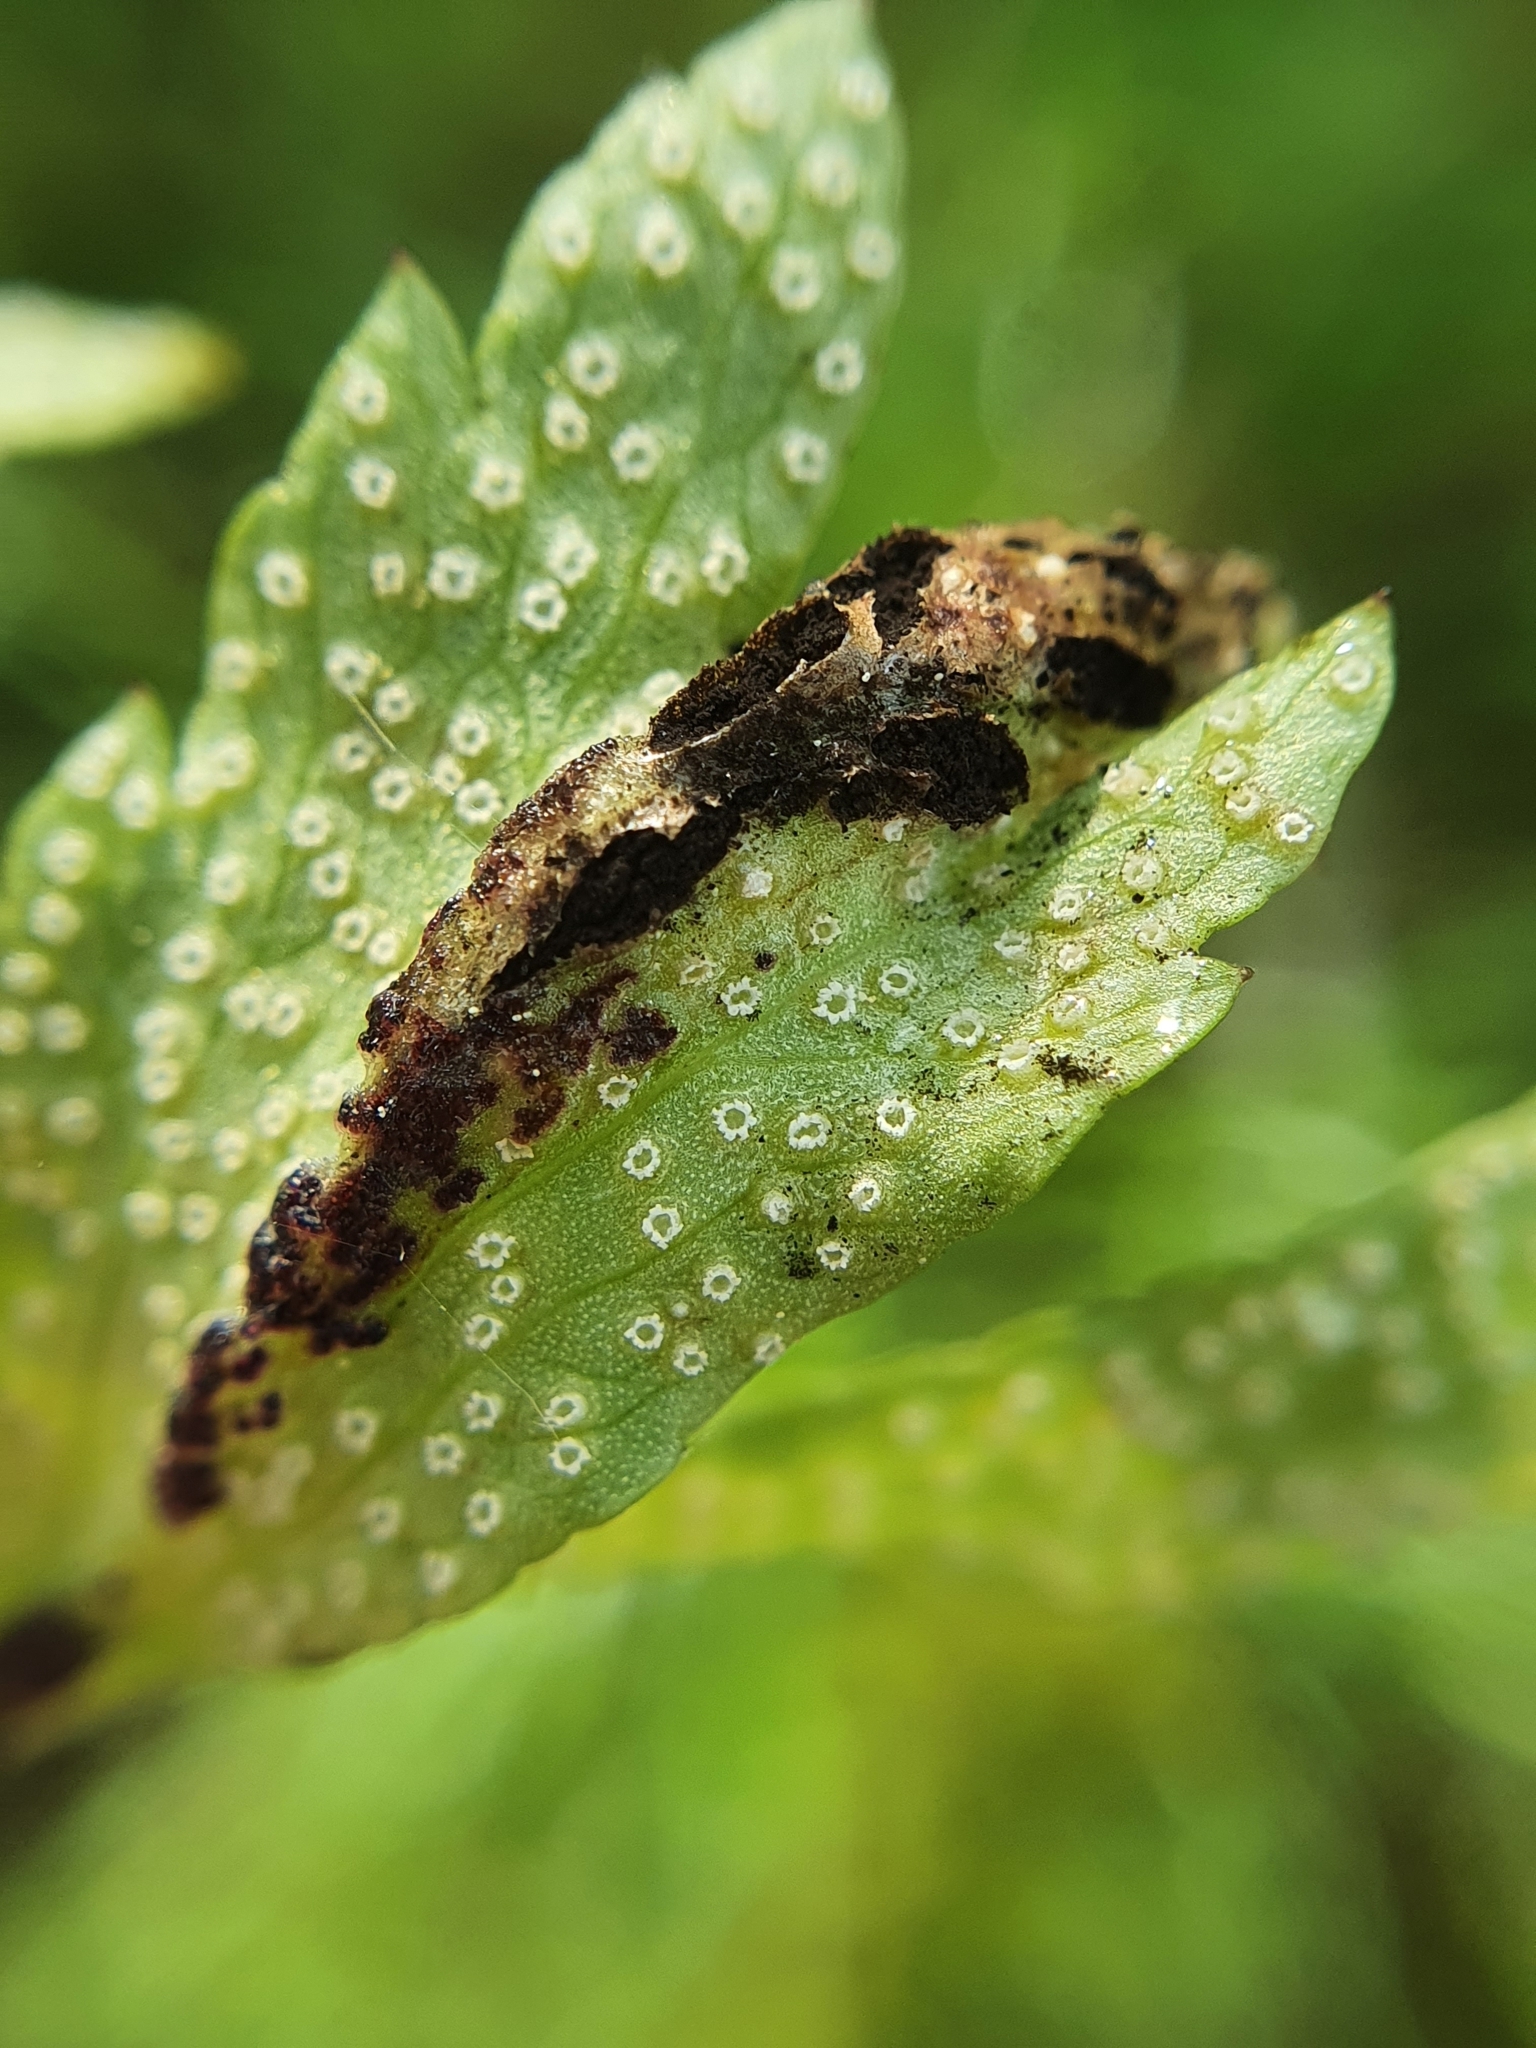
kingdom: Fungi
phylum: Basidiomycota
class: Ustilaginomycetes
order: Urocystidales
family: Urocystidaceae
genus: Urocystis
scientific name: Urocystis anemones
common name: Anemone smut
